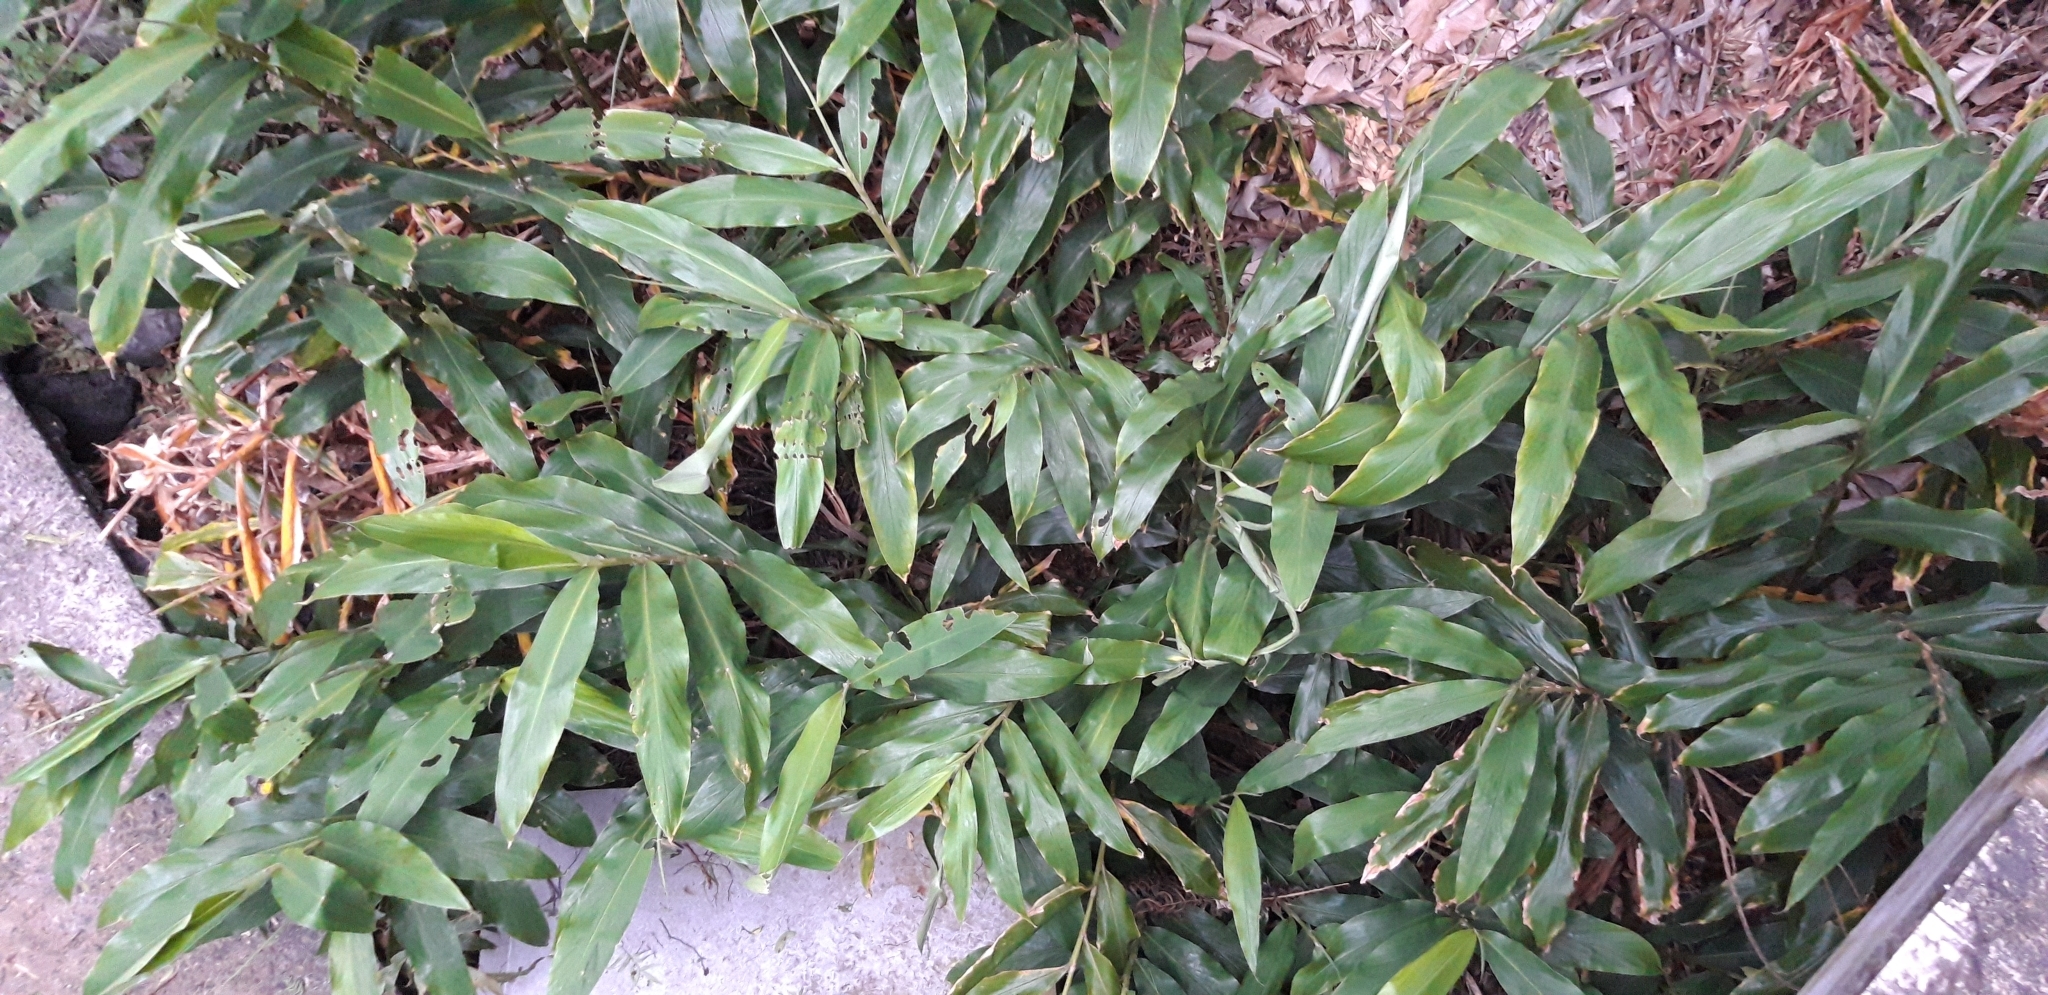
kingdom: Plantae
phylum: Tracheophyta
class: Liliopsida
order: Zingiberales
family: Zingiberaceae
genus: Hedychium
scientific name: Hedychium flavescens
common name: Yellow ginger
